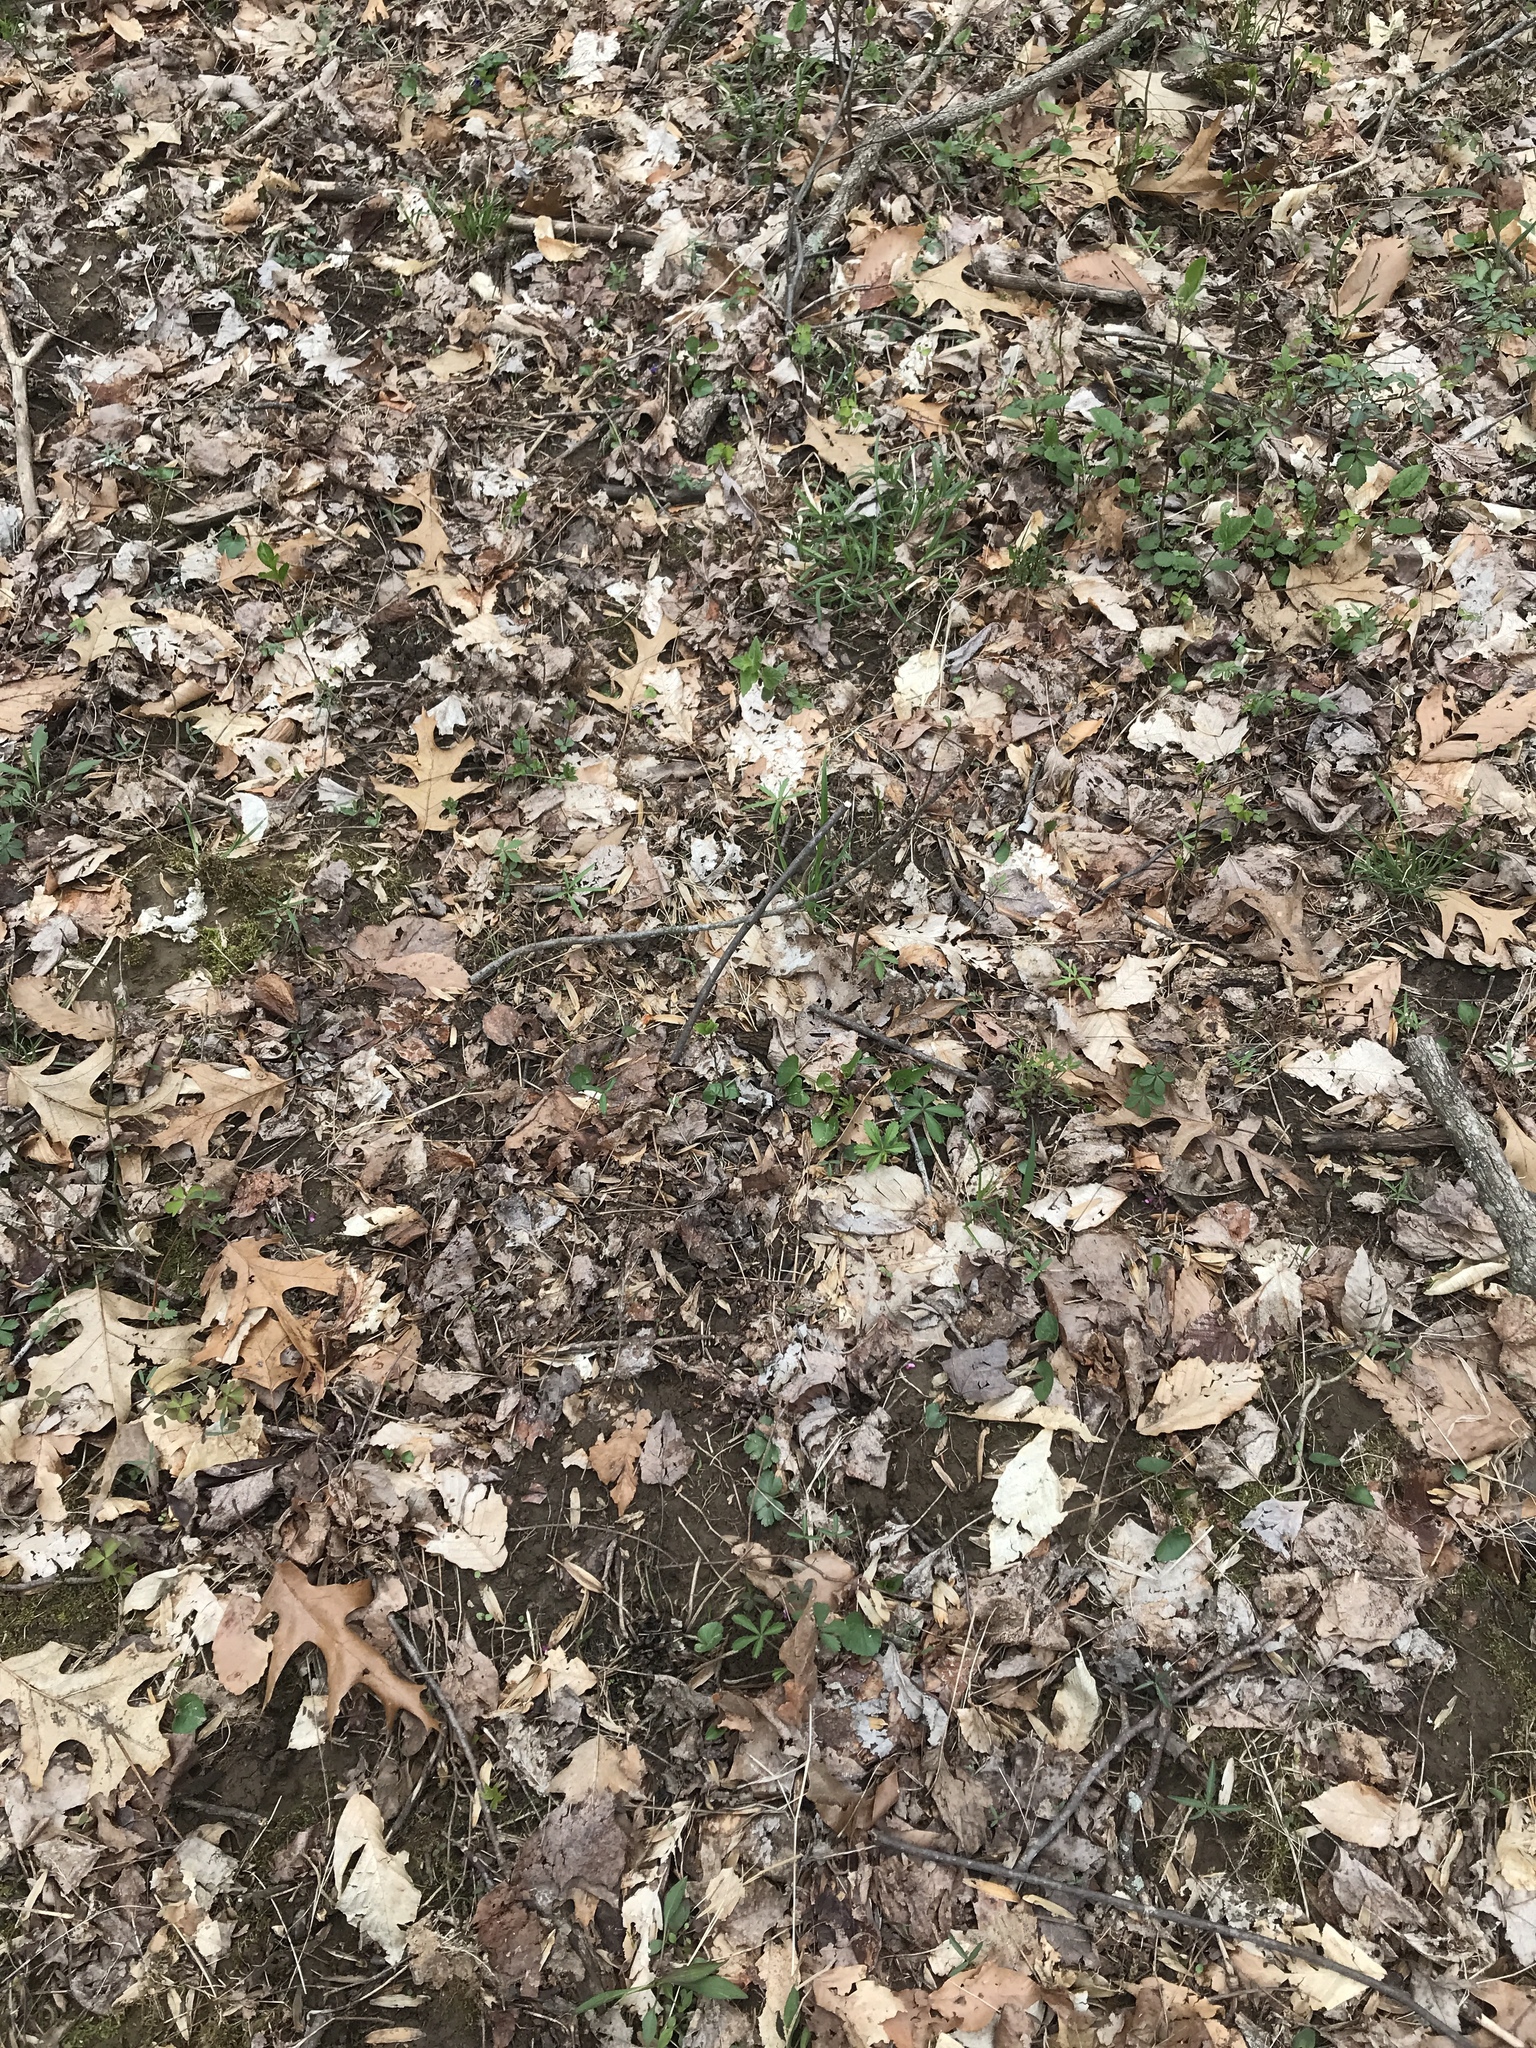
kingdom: Fungi
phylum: Ascomycota
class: Pezizomycetes
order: Pezizales
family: Morchellaceae
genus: Morchella
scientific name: Morchella angusticeps
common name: Black morel
